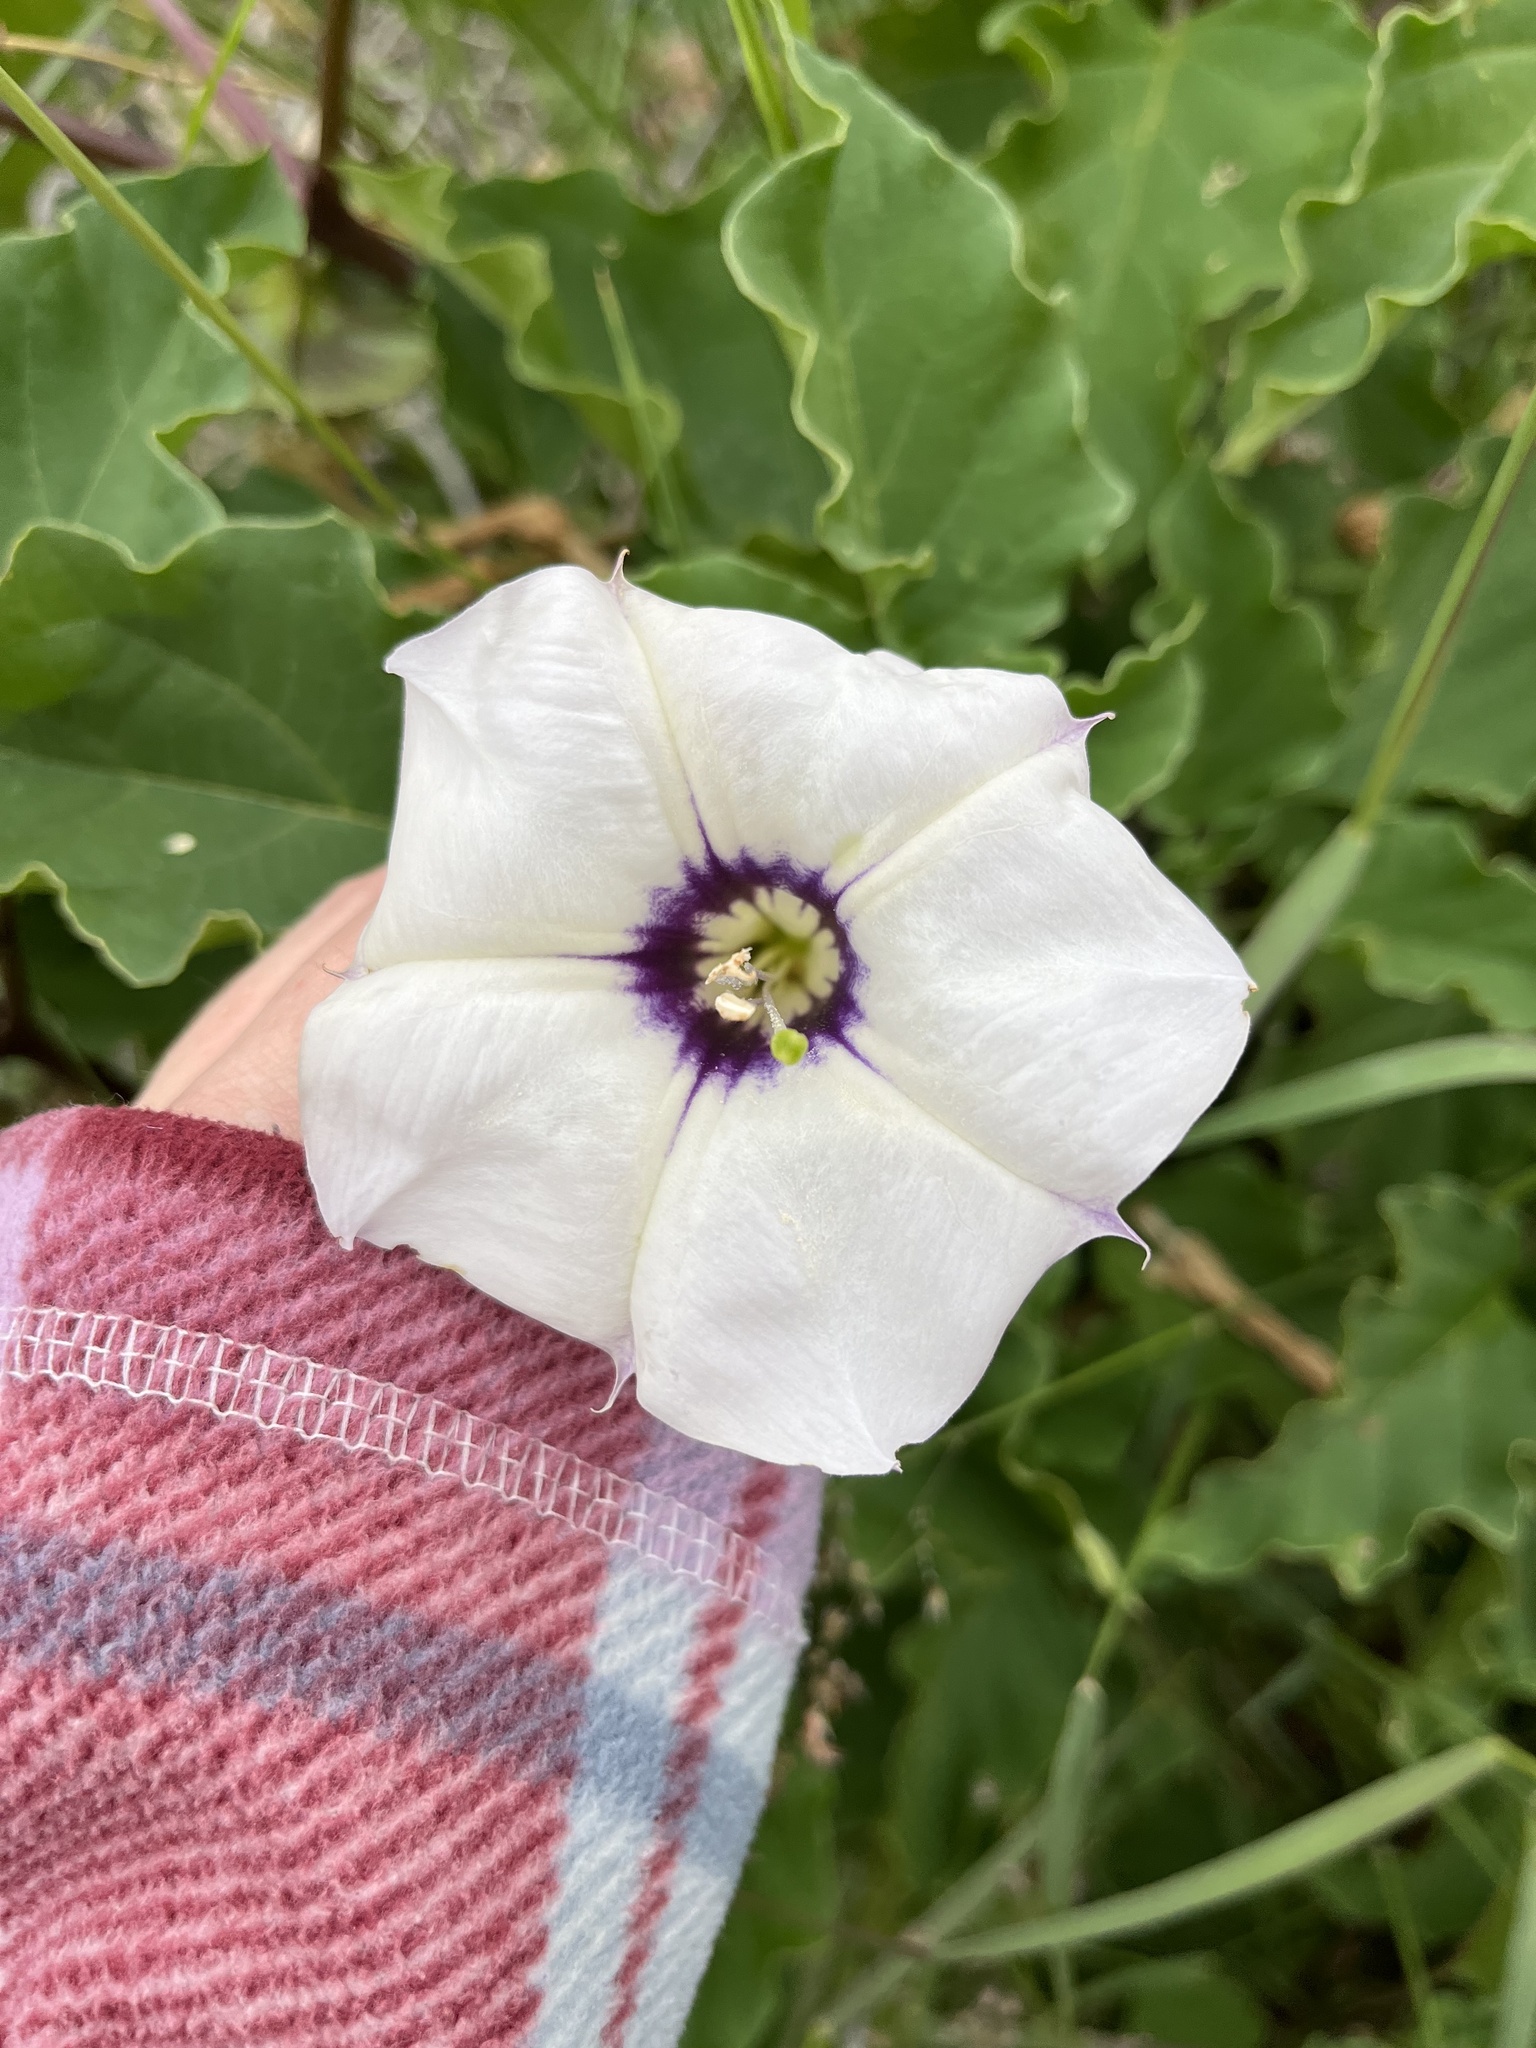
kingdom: Plantae
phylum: Tracheophyta
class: Magnoliopsida
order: Solanales
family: Solanaceae
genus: Datura
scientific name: Datura discolor
